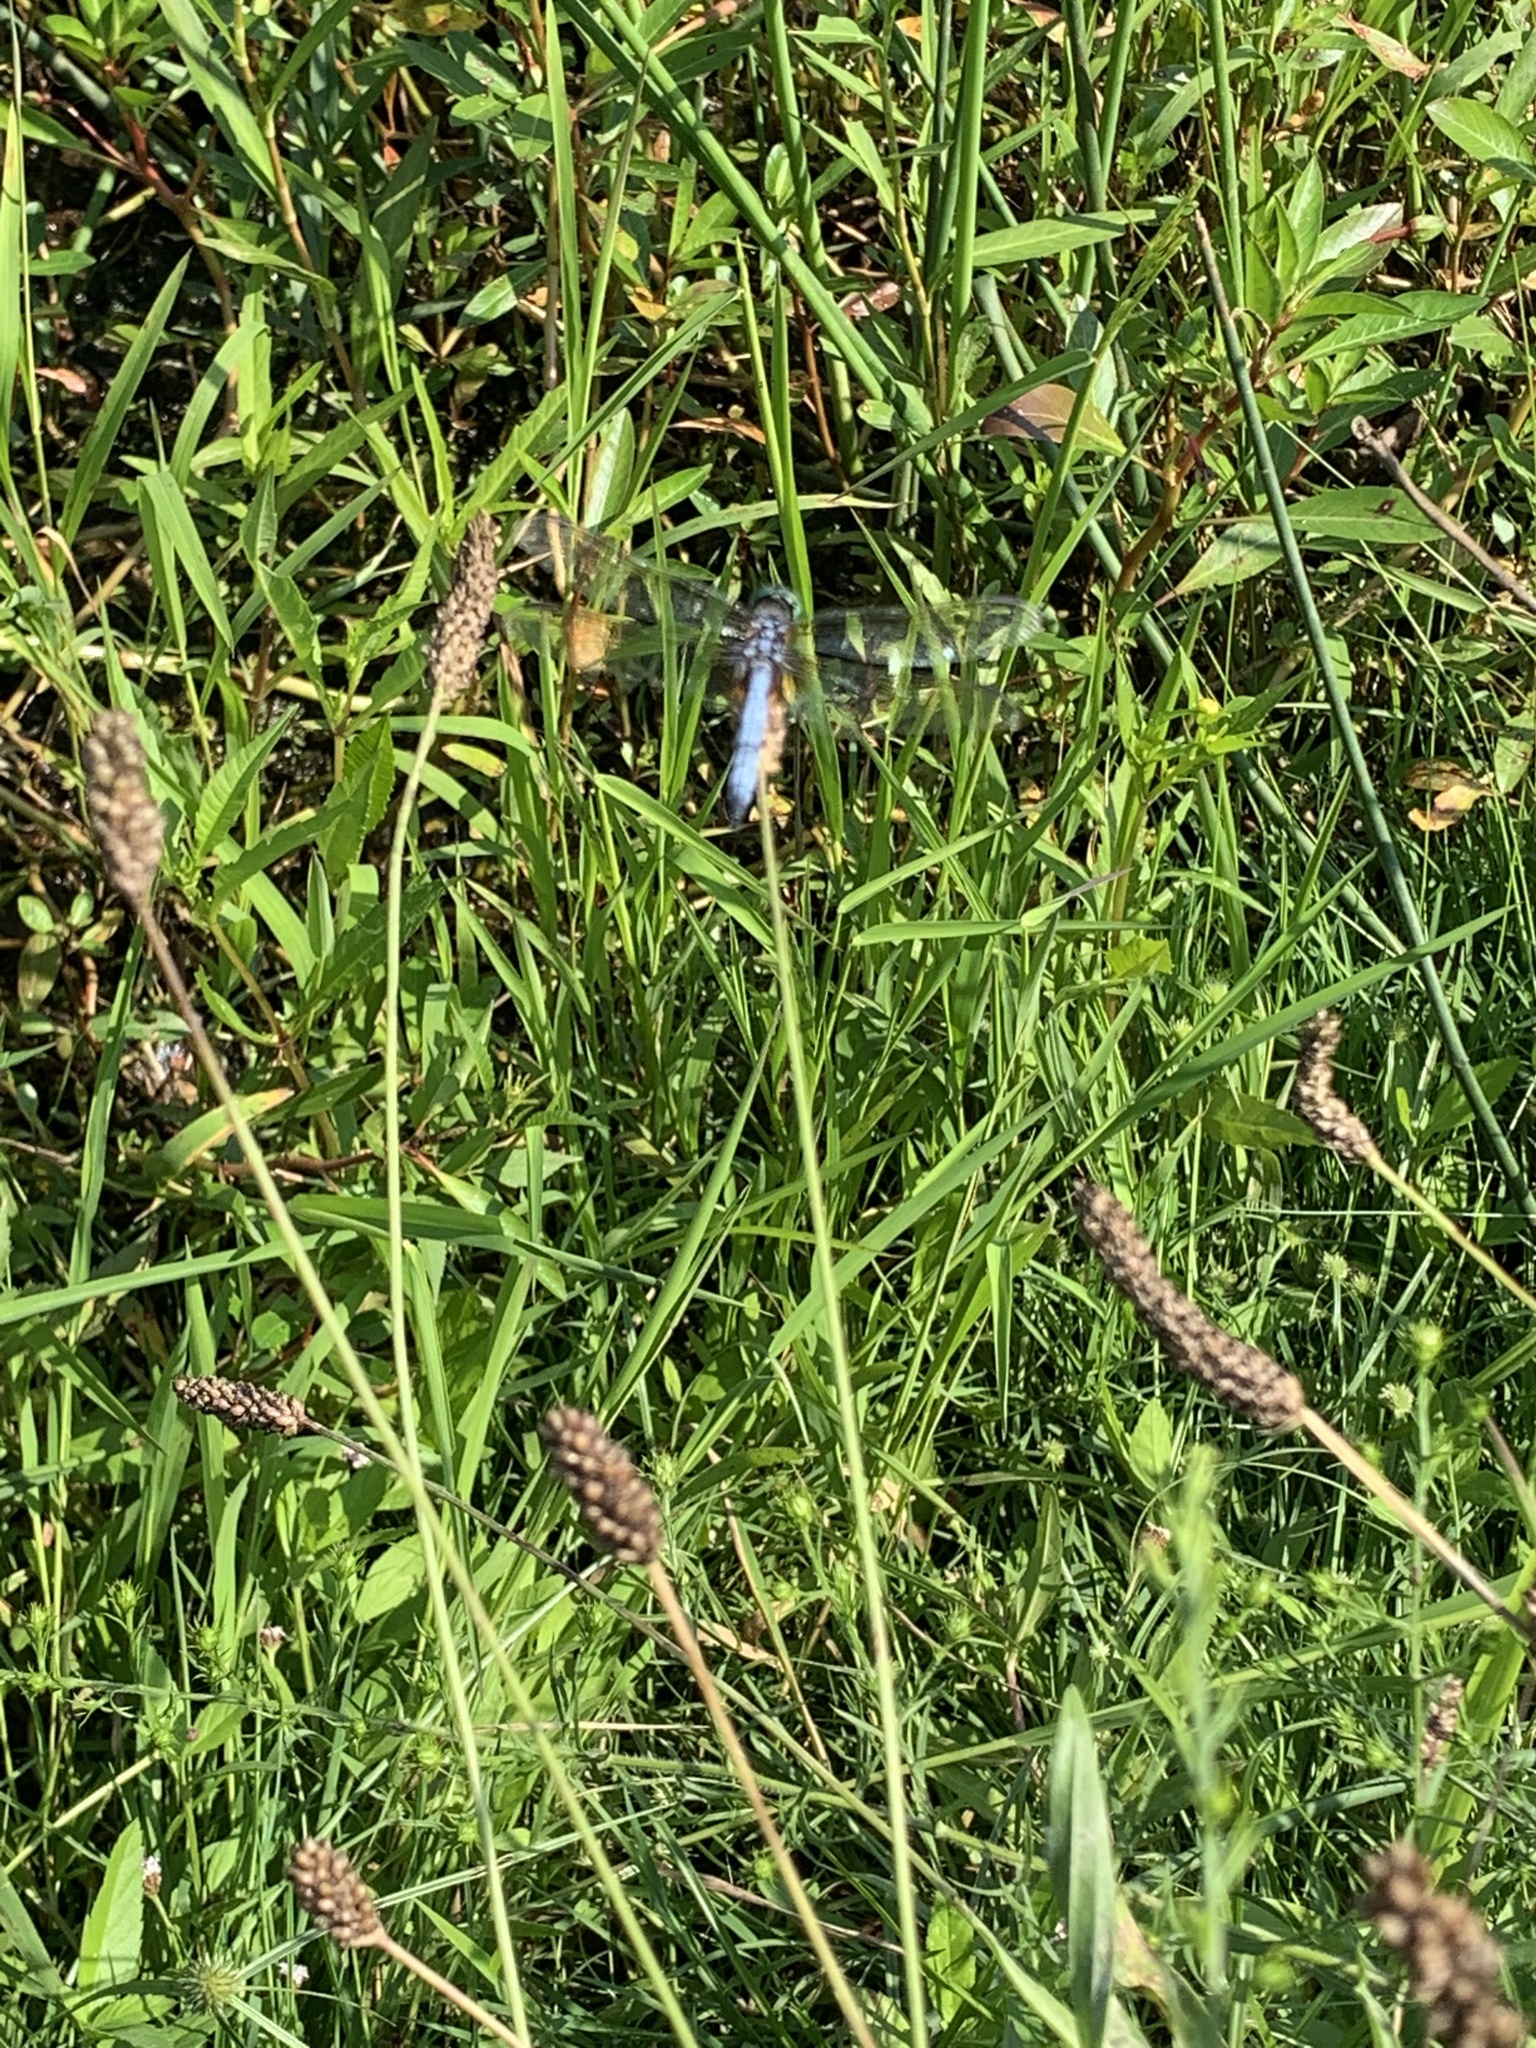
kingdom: Animalia
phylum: Arthropoda
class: Insecta
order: Odonata
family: Libellulidae
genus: Pachydiplax
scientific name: Pachydiplax longipennis
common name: Blue dasher
